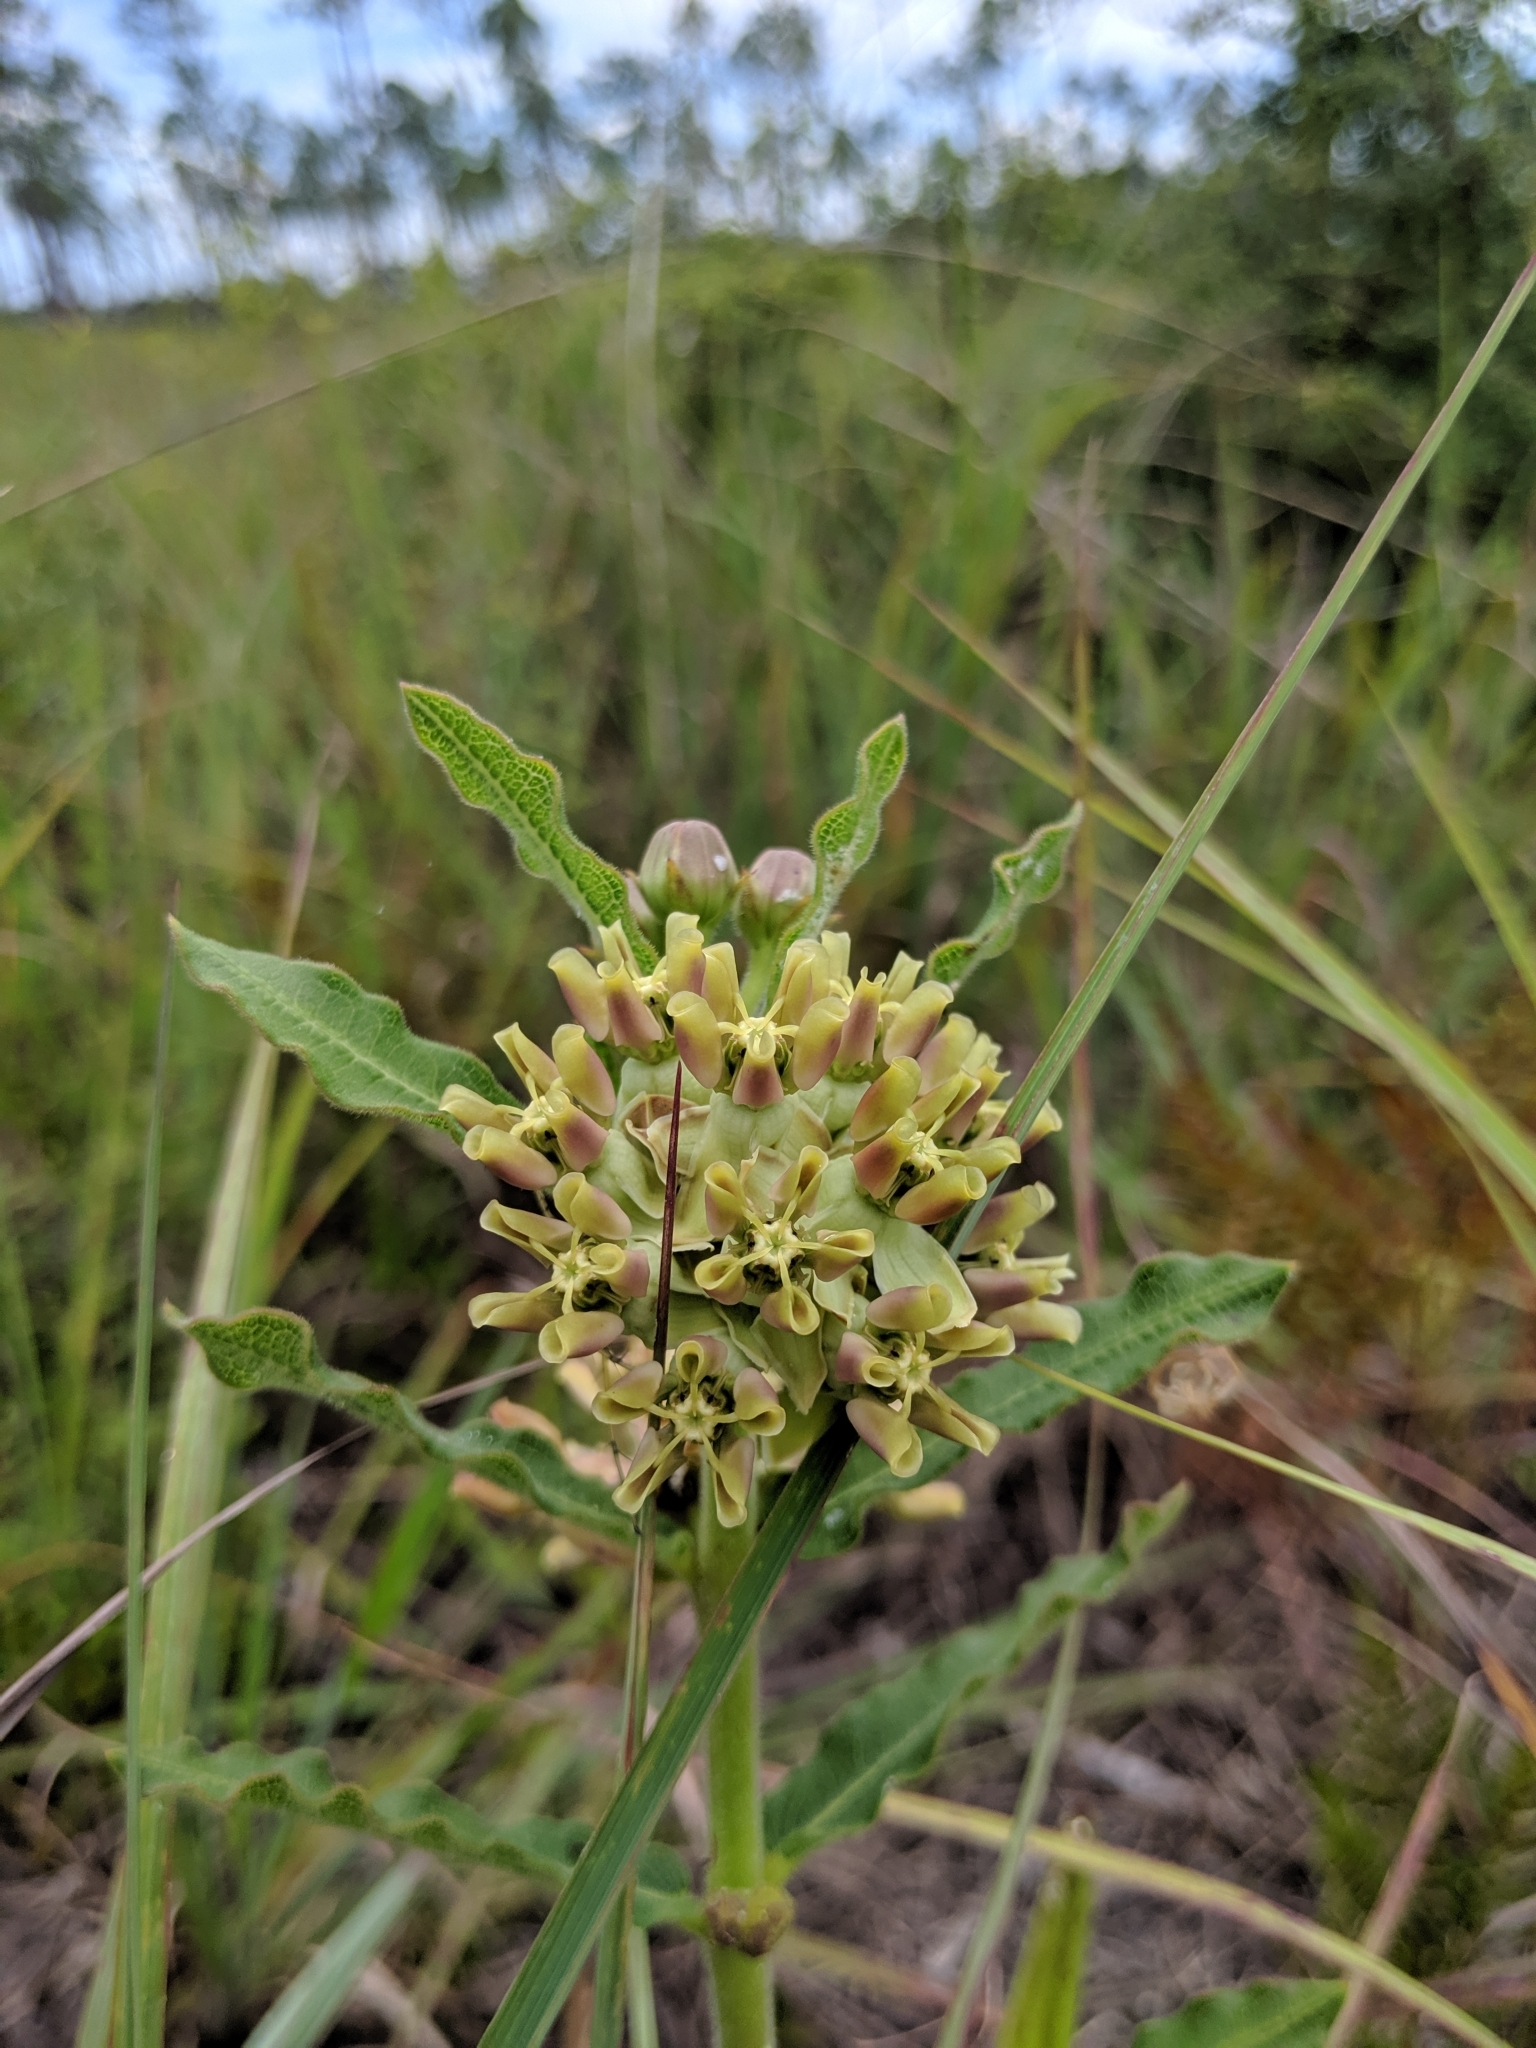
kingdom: Plantae
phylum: Tracheophyta
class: Magnoliopsida
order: Gentianales
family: Apocynaceae
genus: Asclepias
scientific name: Asclepias obovata
